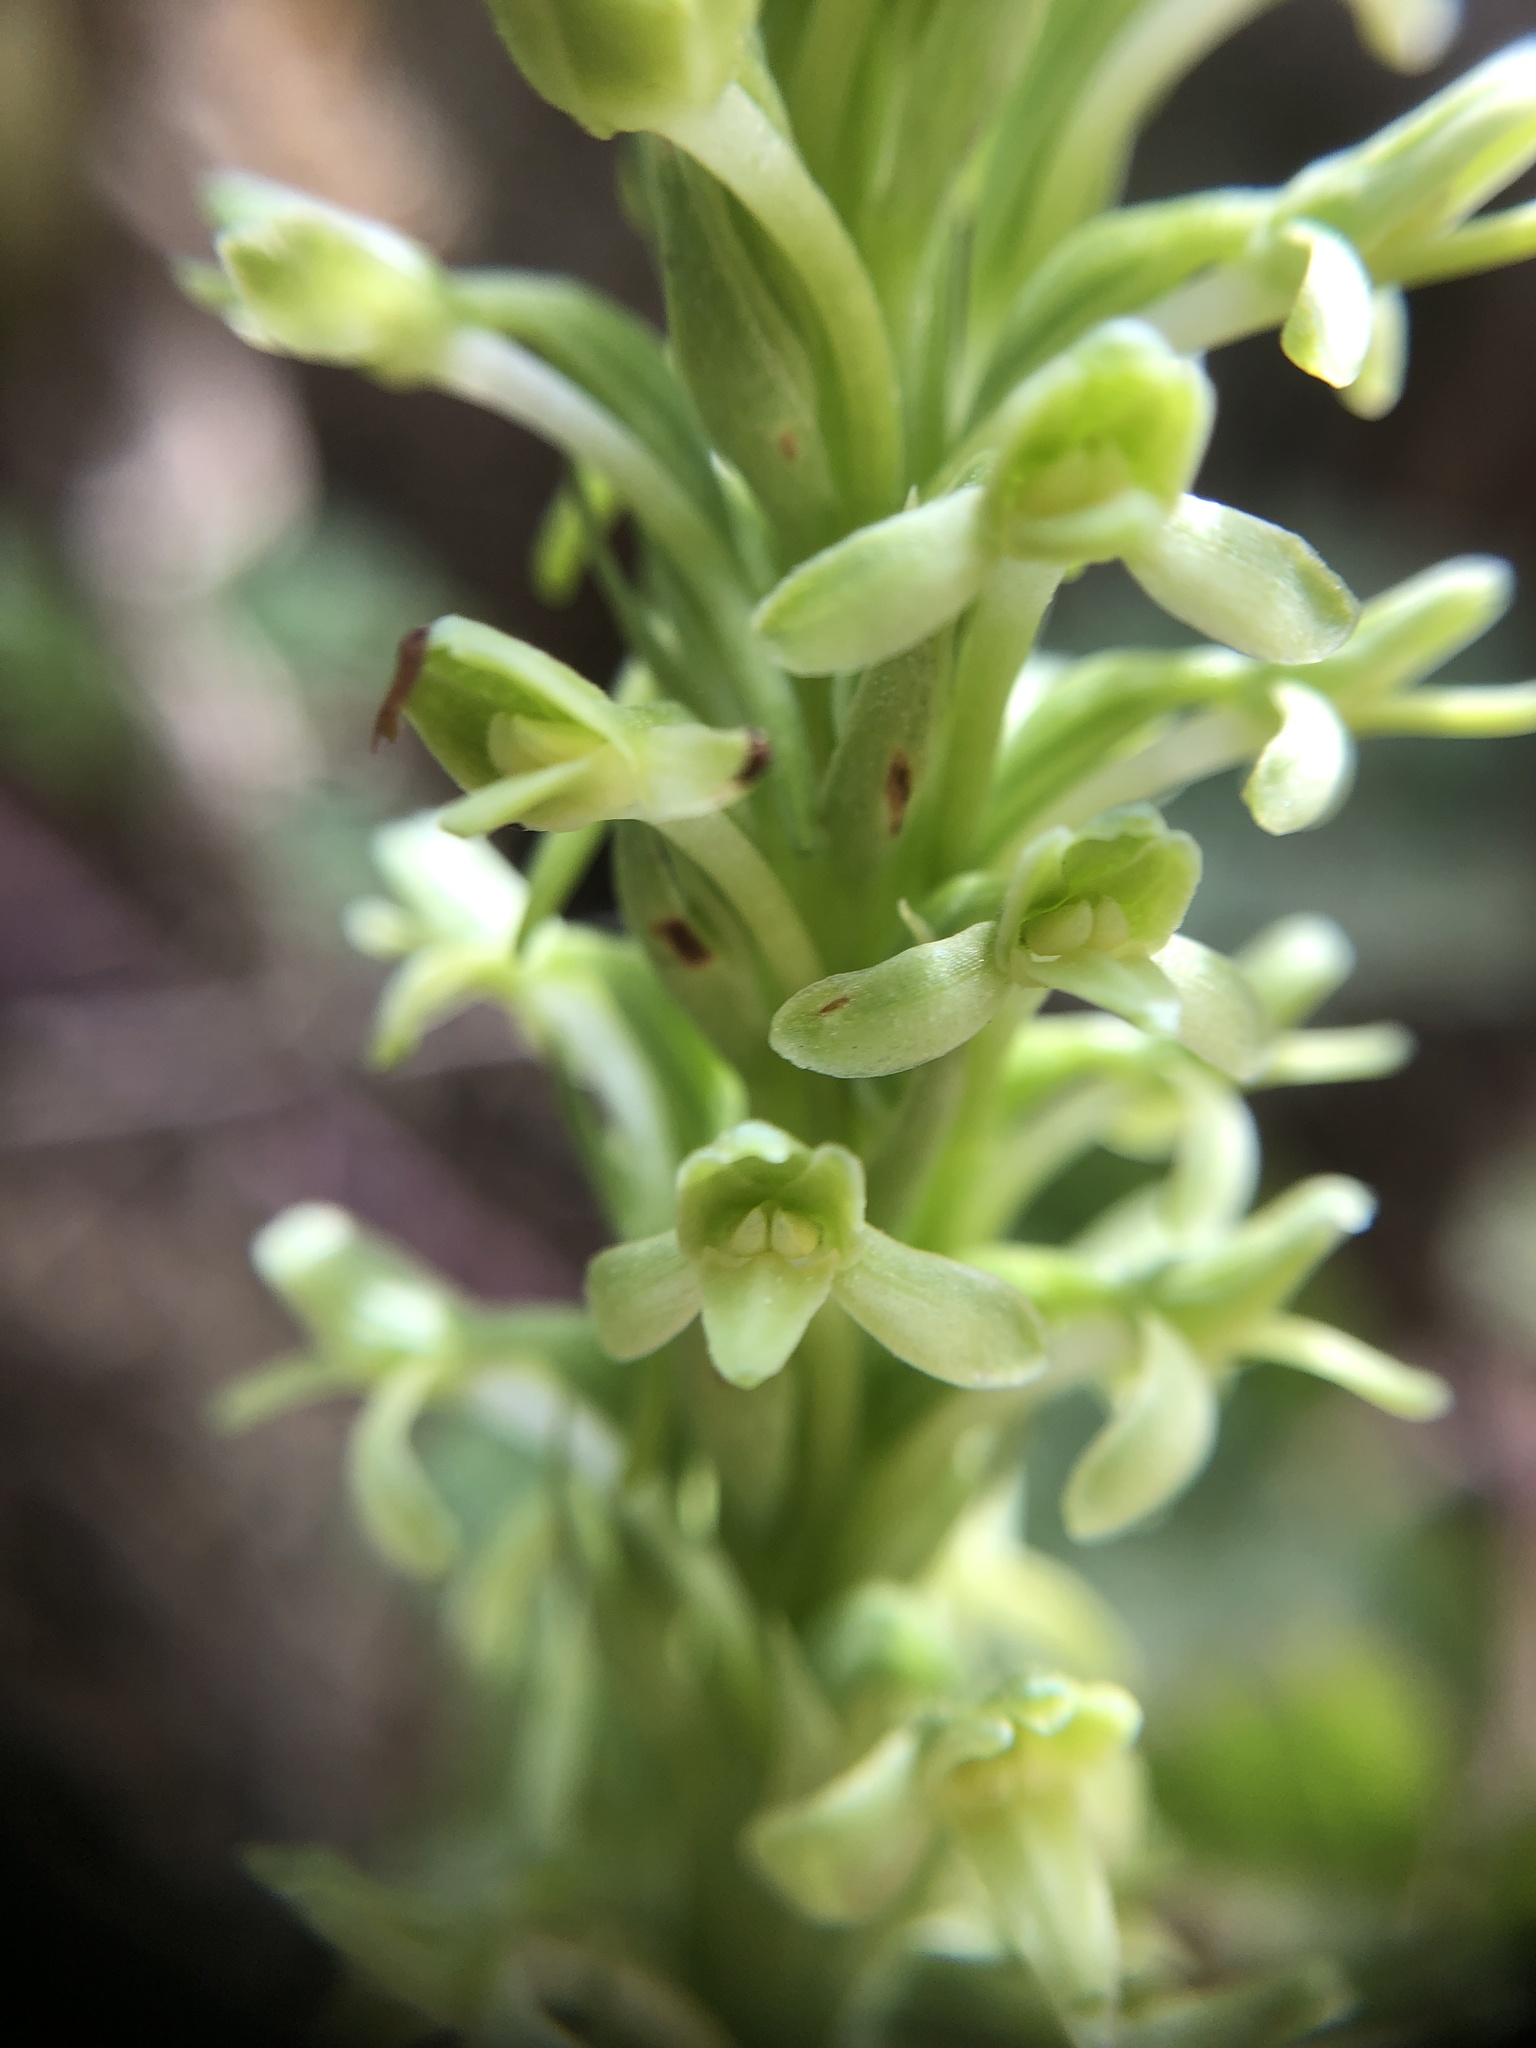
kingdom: Plantae
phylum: Tracheophyta
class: Liliopsida
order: Asparagales
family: Orchidaceae
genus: Platanthera
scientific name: Platanthera elongata
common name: Dense-flowered rein orchid
